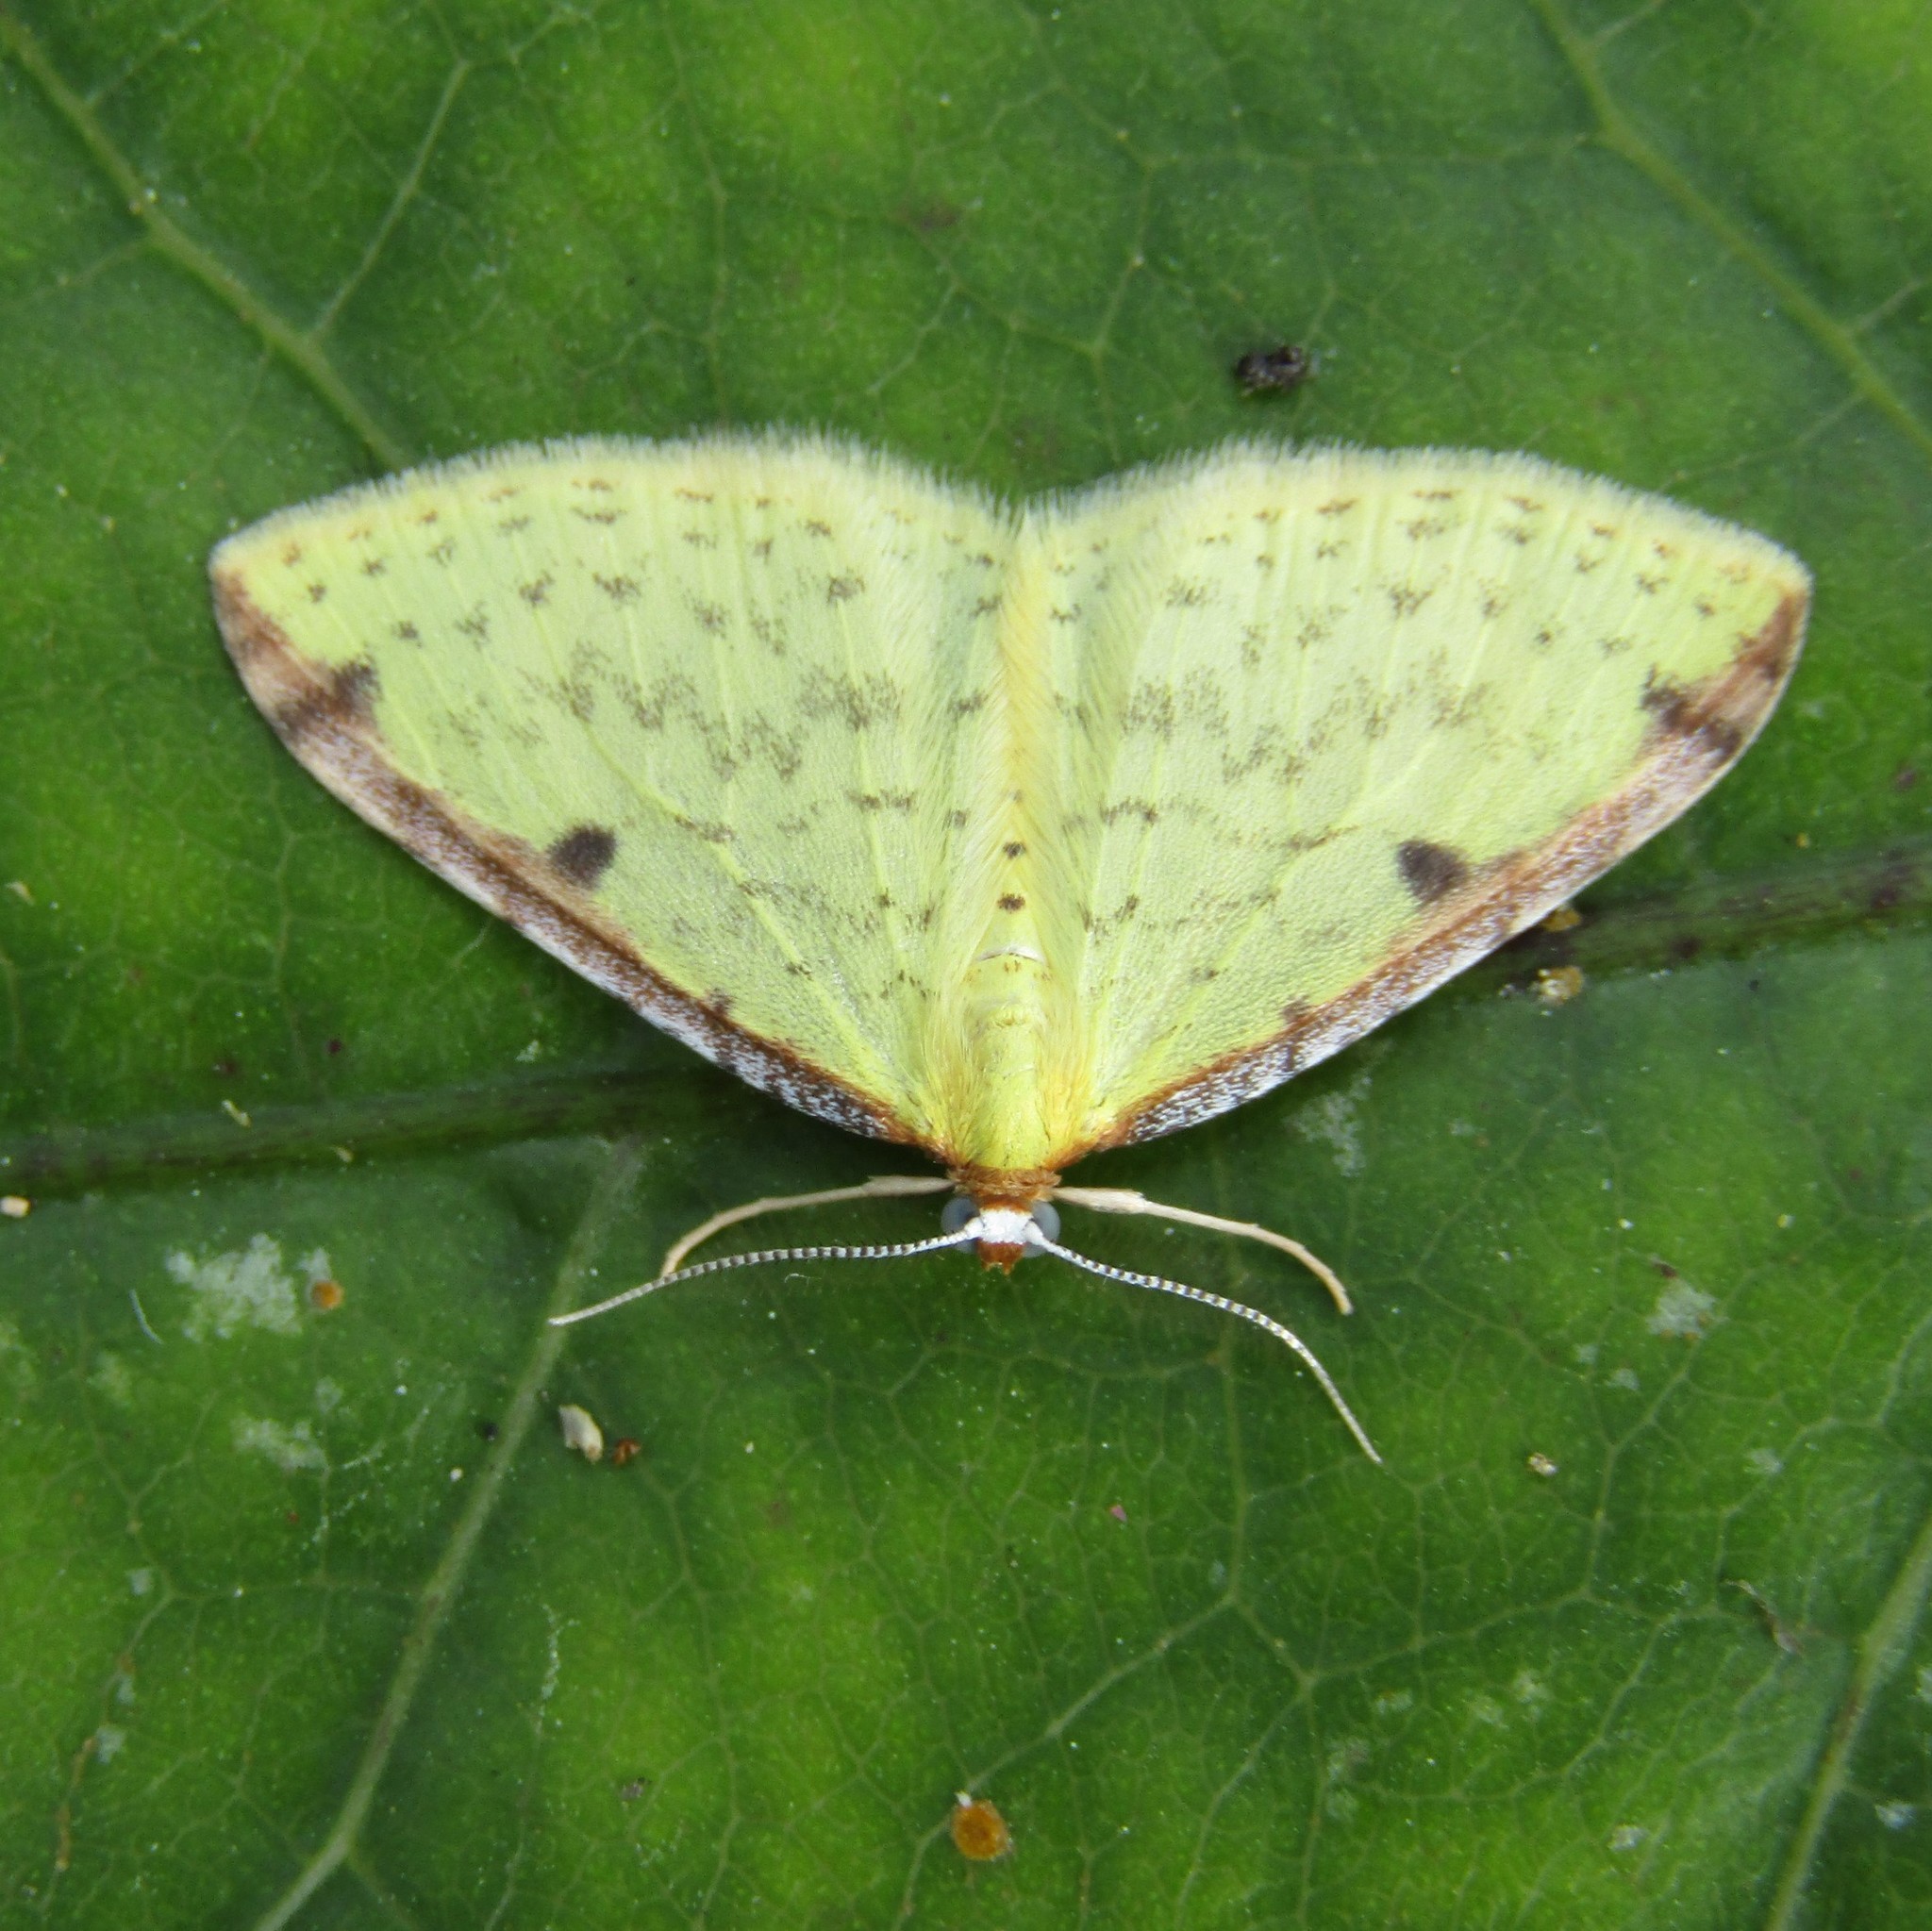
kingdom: Animalia
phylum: Arthropoda
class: Insecta
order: Lepidoptera
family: Geometridae
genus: Epiphryne
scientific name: Epiphryne undosata
